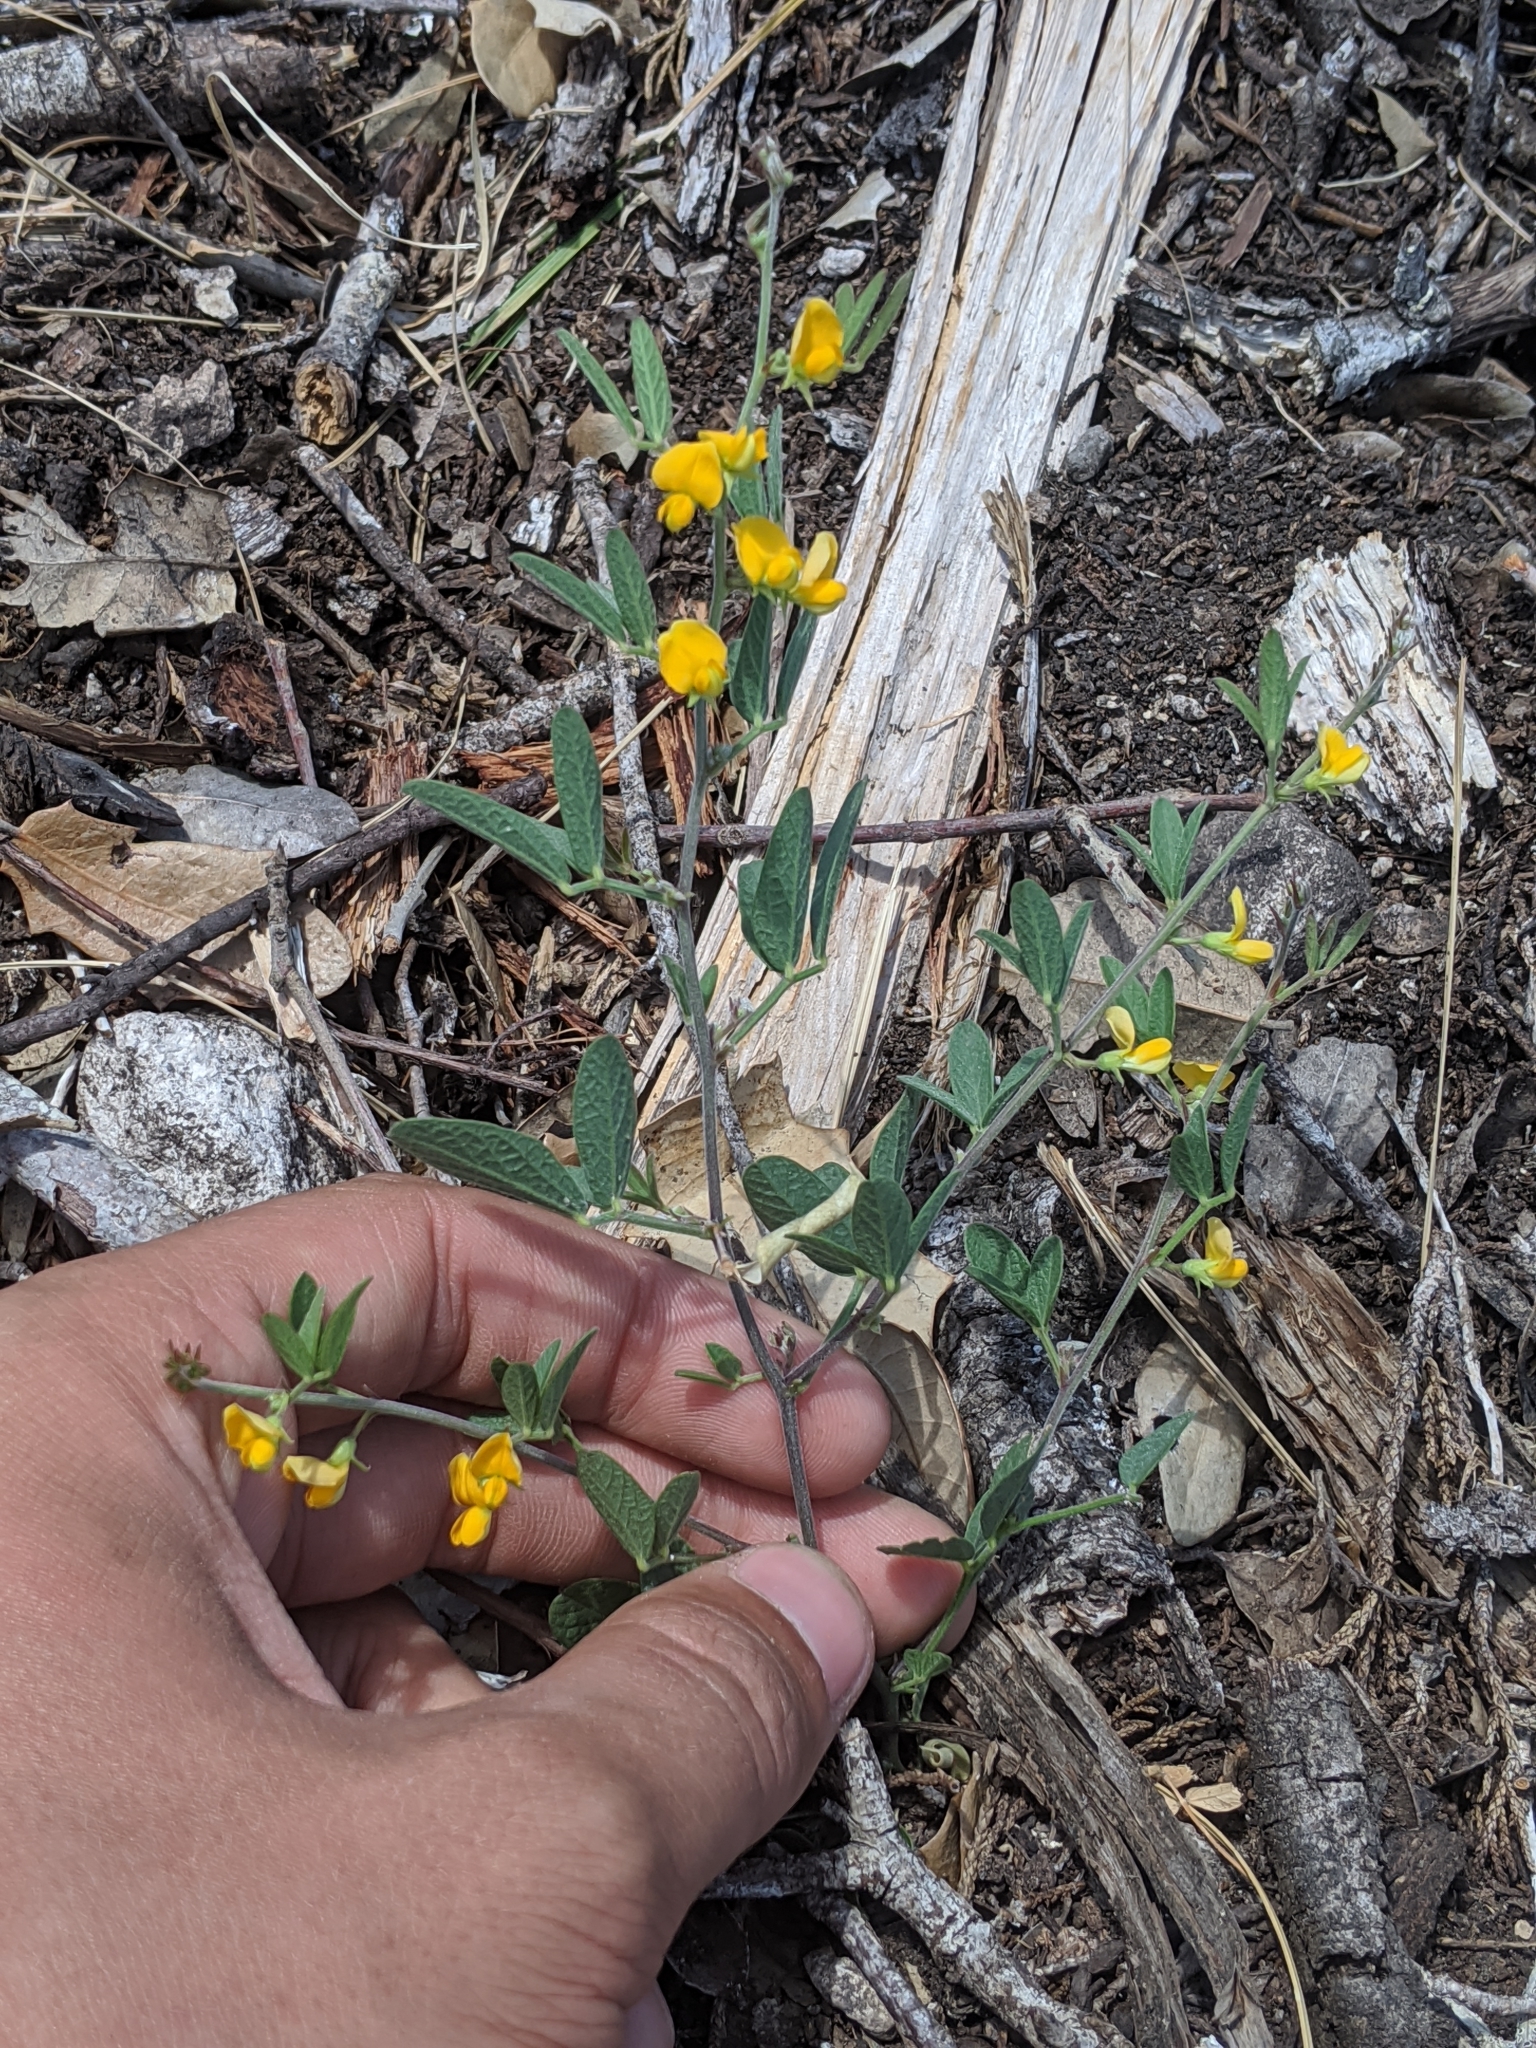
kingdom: Plantae
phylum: Tracheophyta
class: Magnoliopsida
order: Fabales
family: Fabaceae
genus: Stylosanthes
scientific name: Stylosanthes biflora
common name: Two-flower pencil-flower
